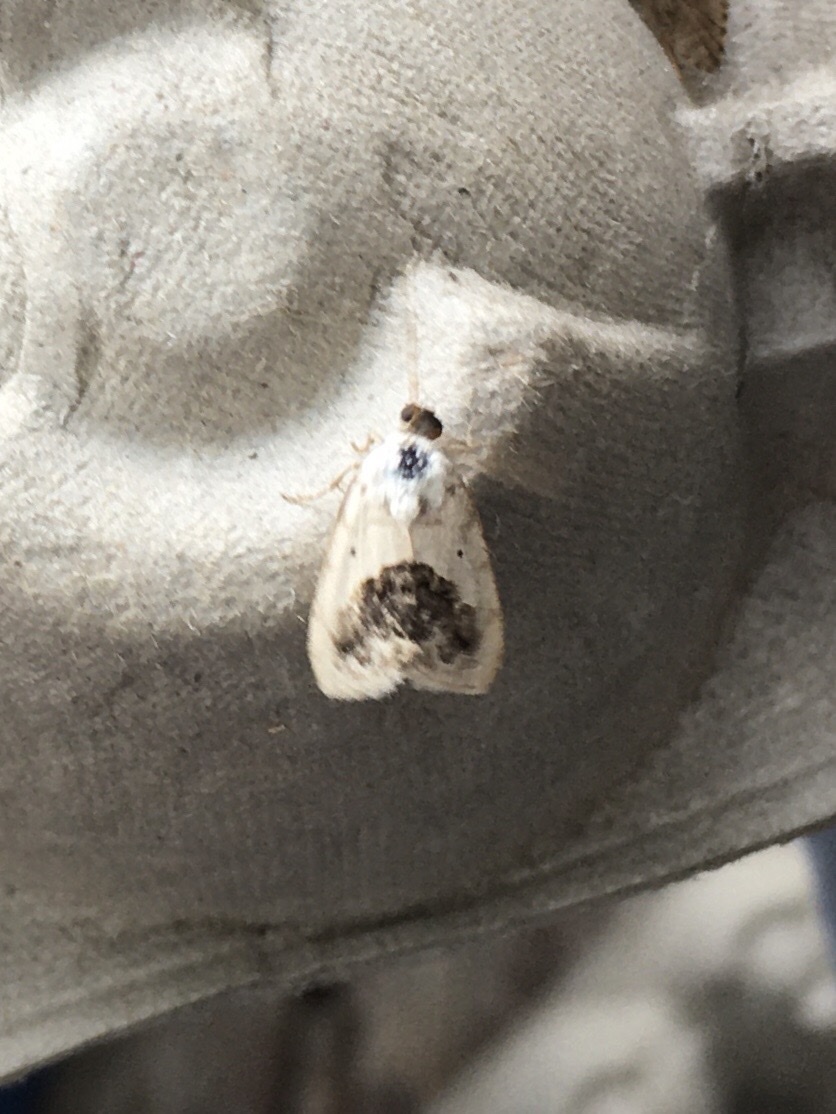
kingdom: Animalia
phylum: Arthropoda
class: Insecta
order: Lepidoptera
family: Noctuidae
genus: Acontia
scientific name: Acontia erastrioides
